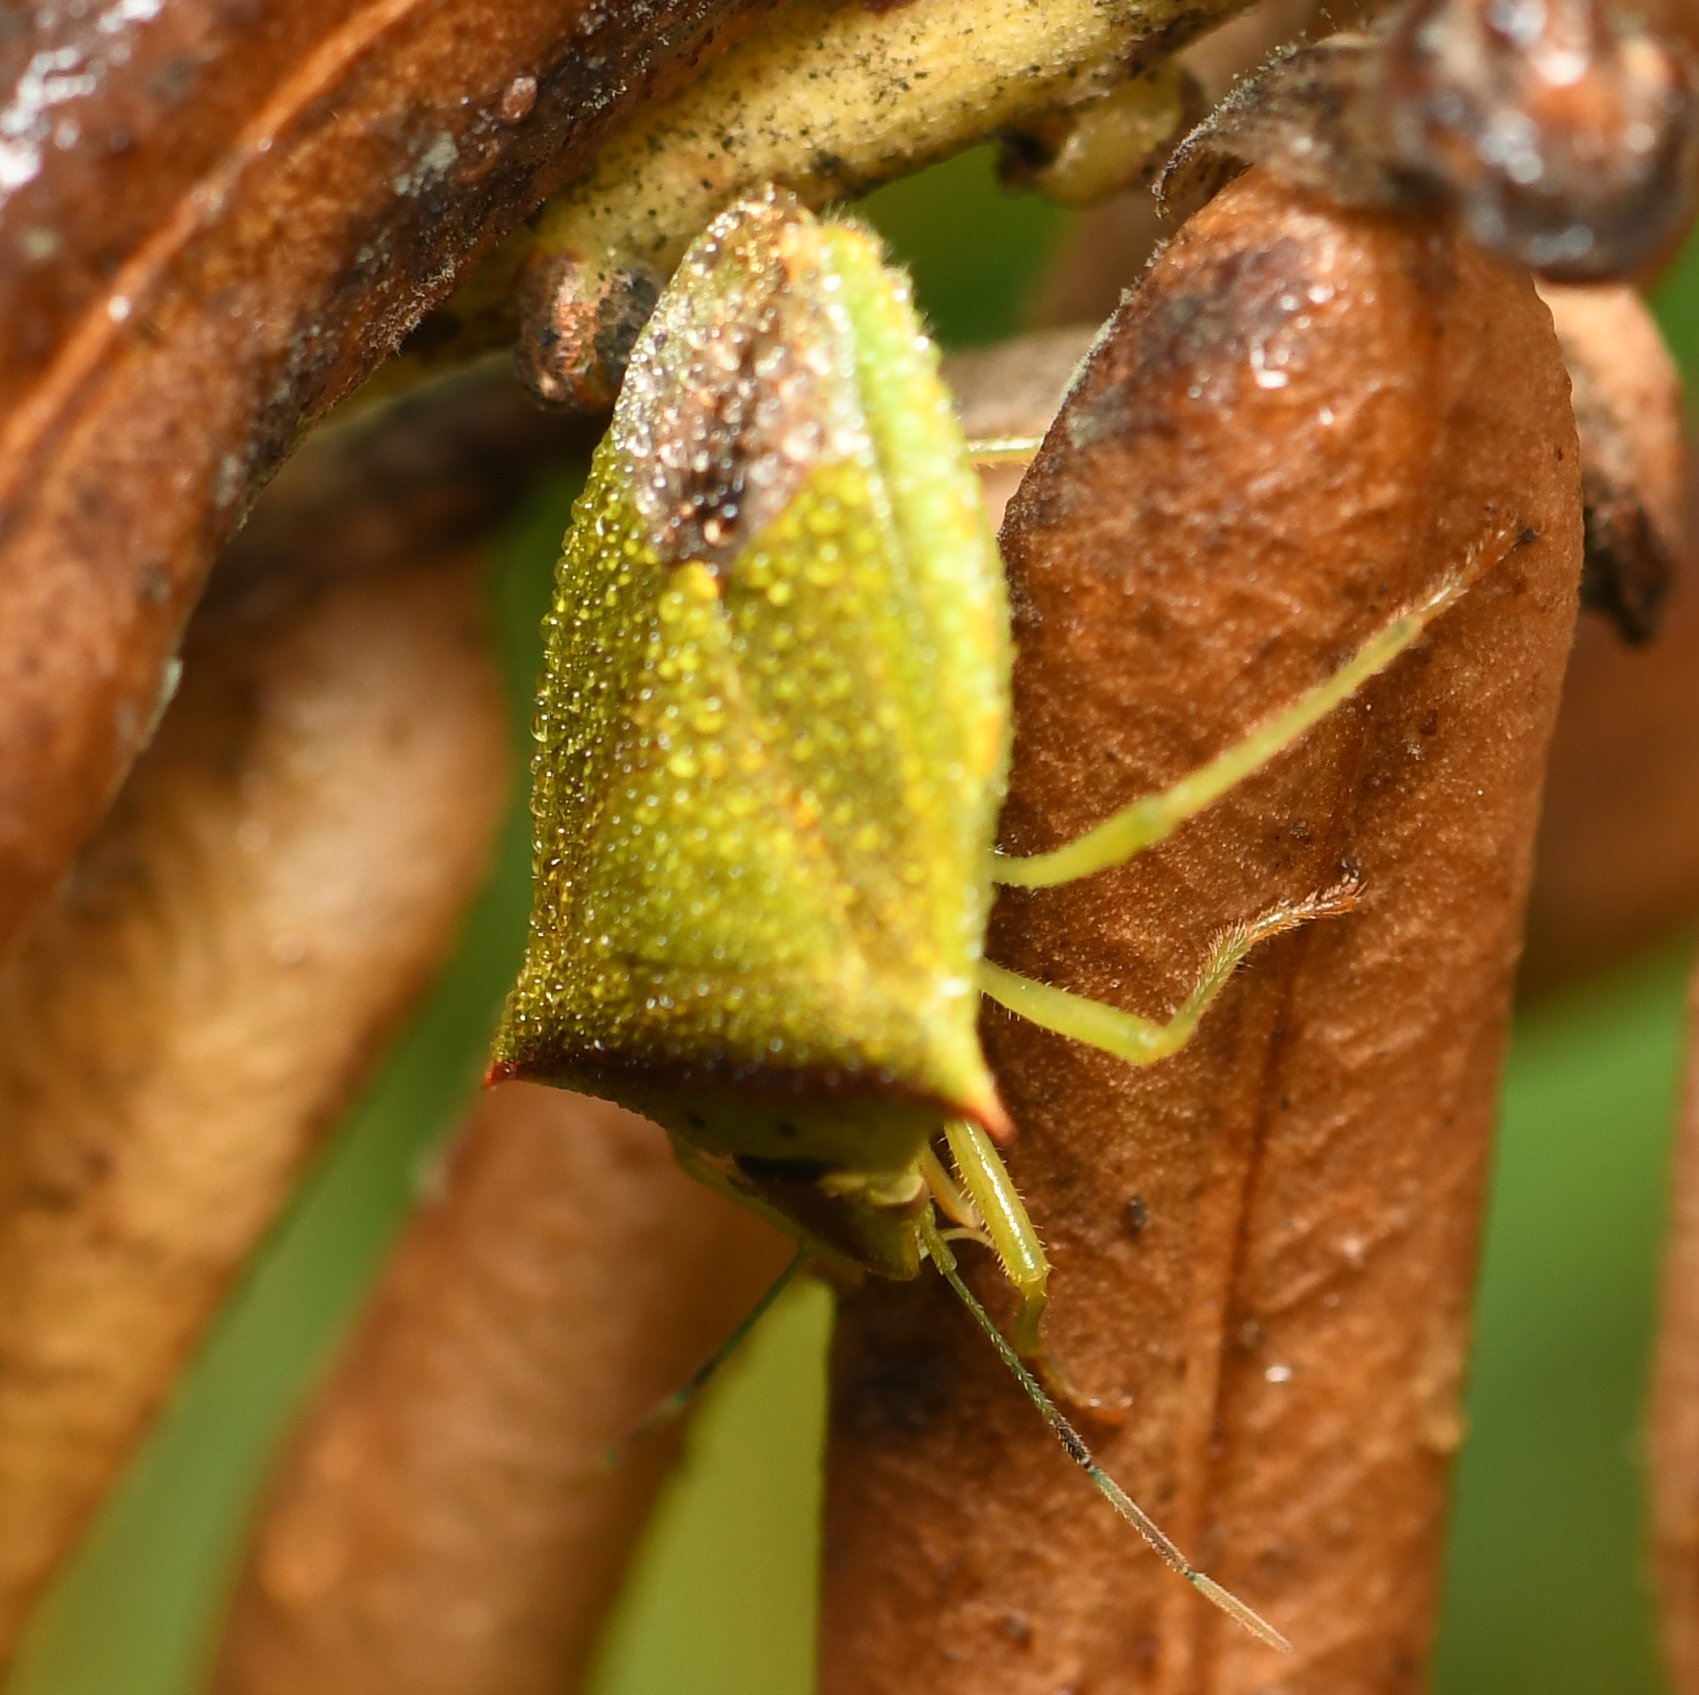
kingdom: Animalia
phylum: Arthropoda
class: Insecta
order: Hemiptera
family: Pentatomidae
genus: Thyanta
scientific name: Thyanta perditor
